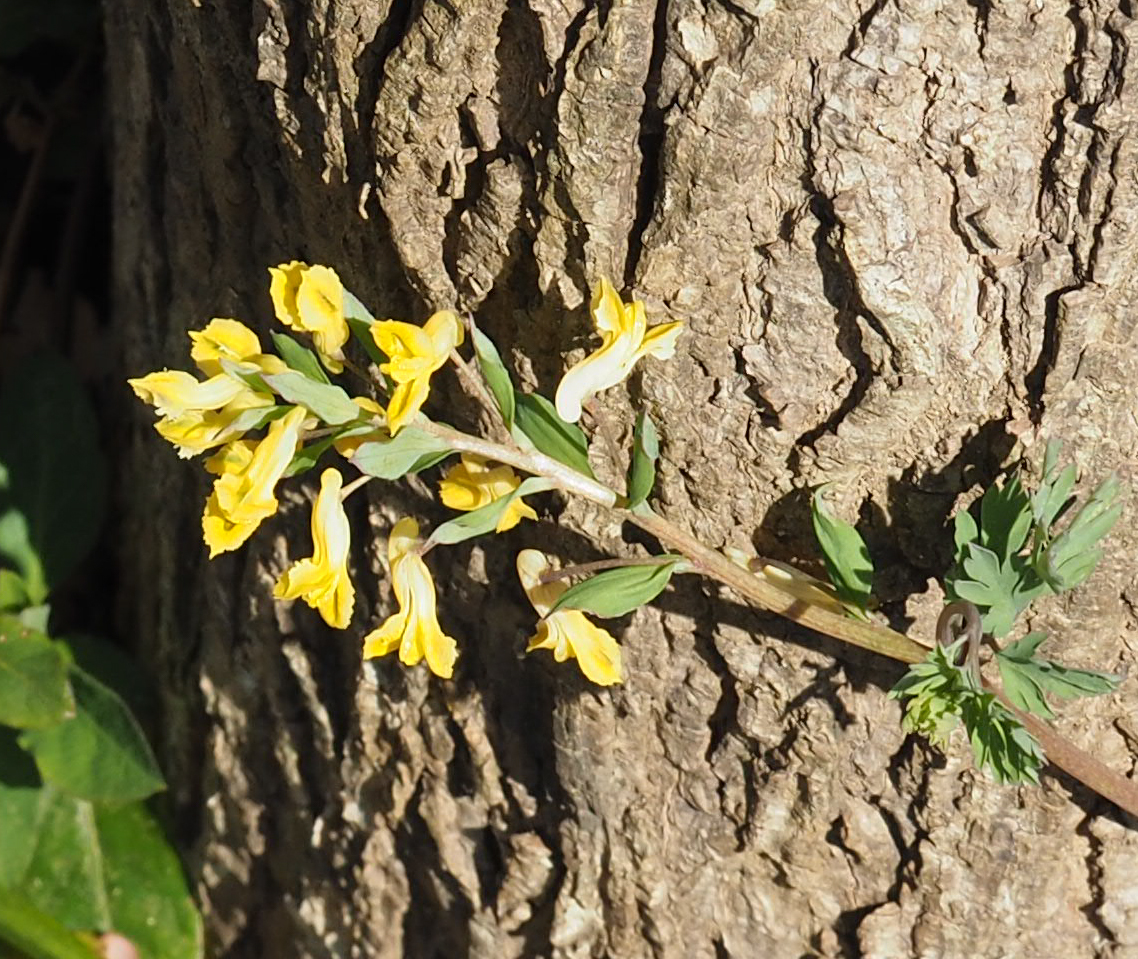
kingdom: Plantae
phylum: Tracheophyta
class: Magnoliopsida
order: Ranunculales
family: Papaveraceae
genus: Corydalis
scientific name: Corydalis flavula
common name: Yellow corydalis
